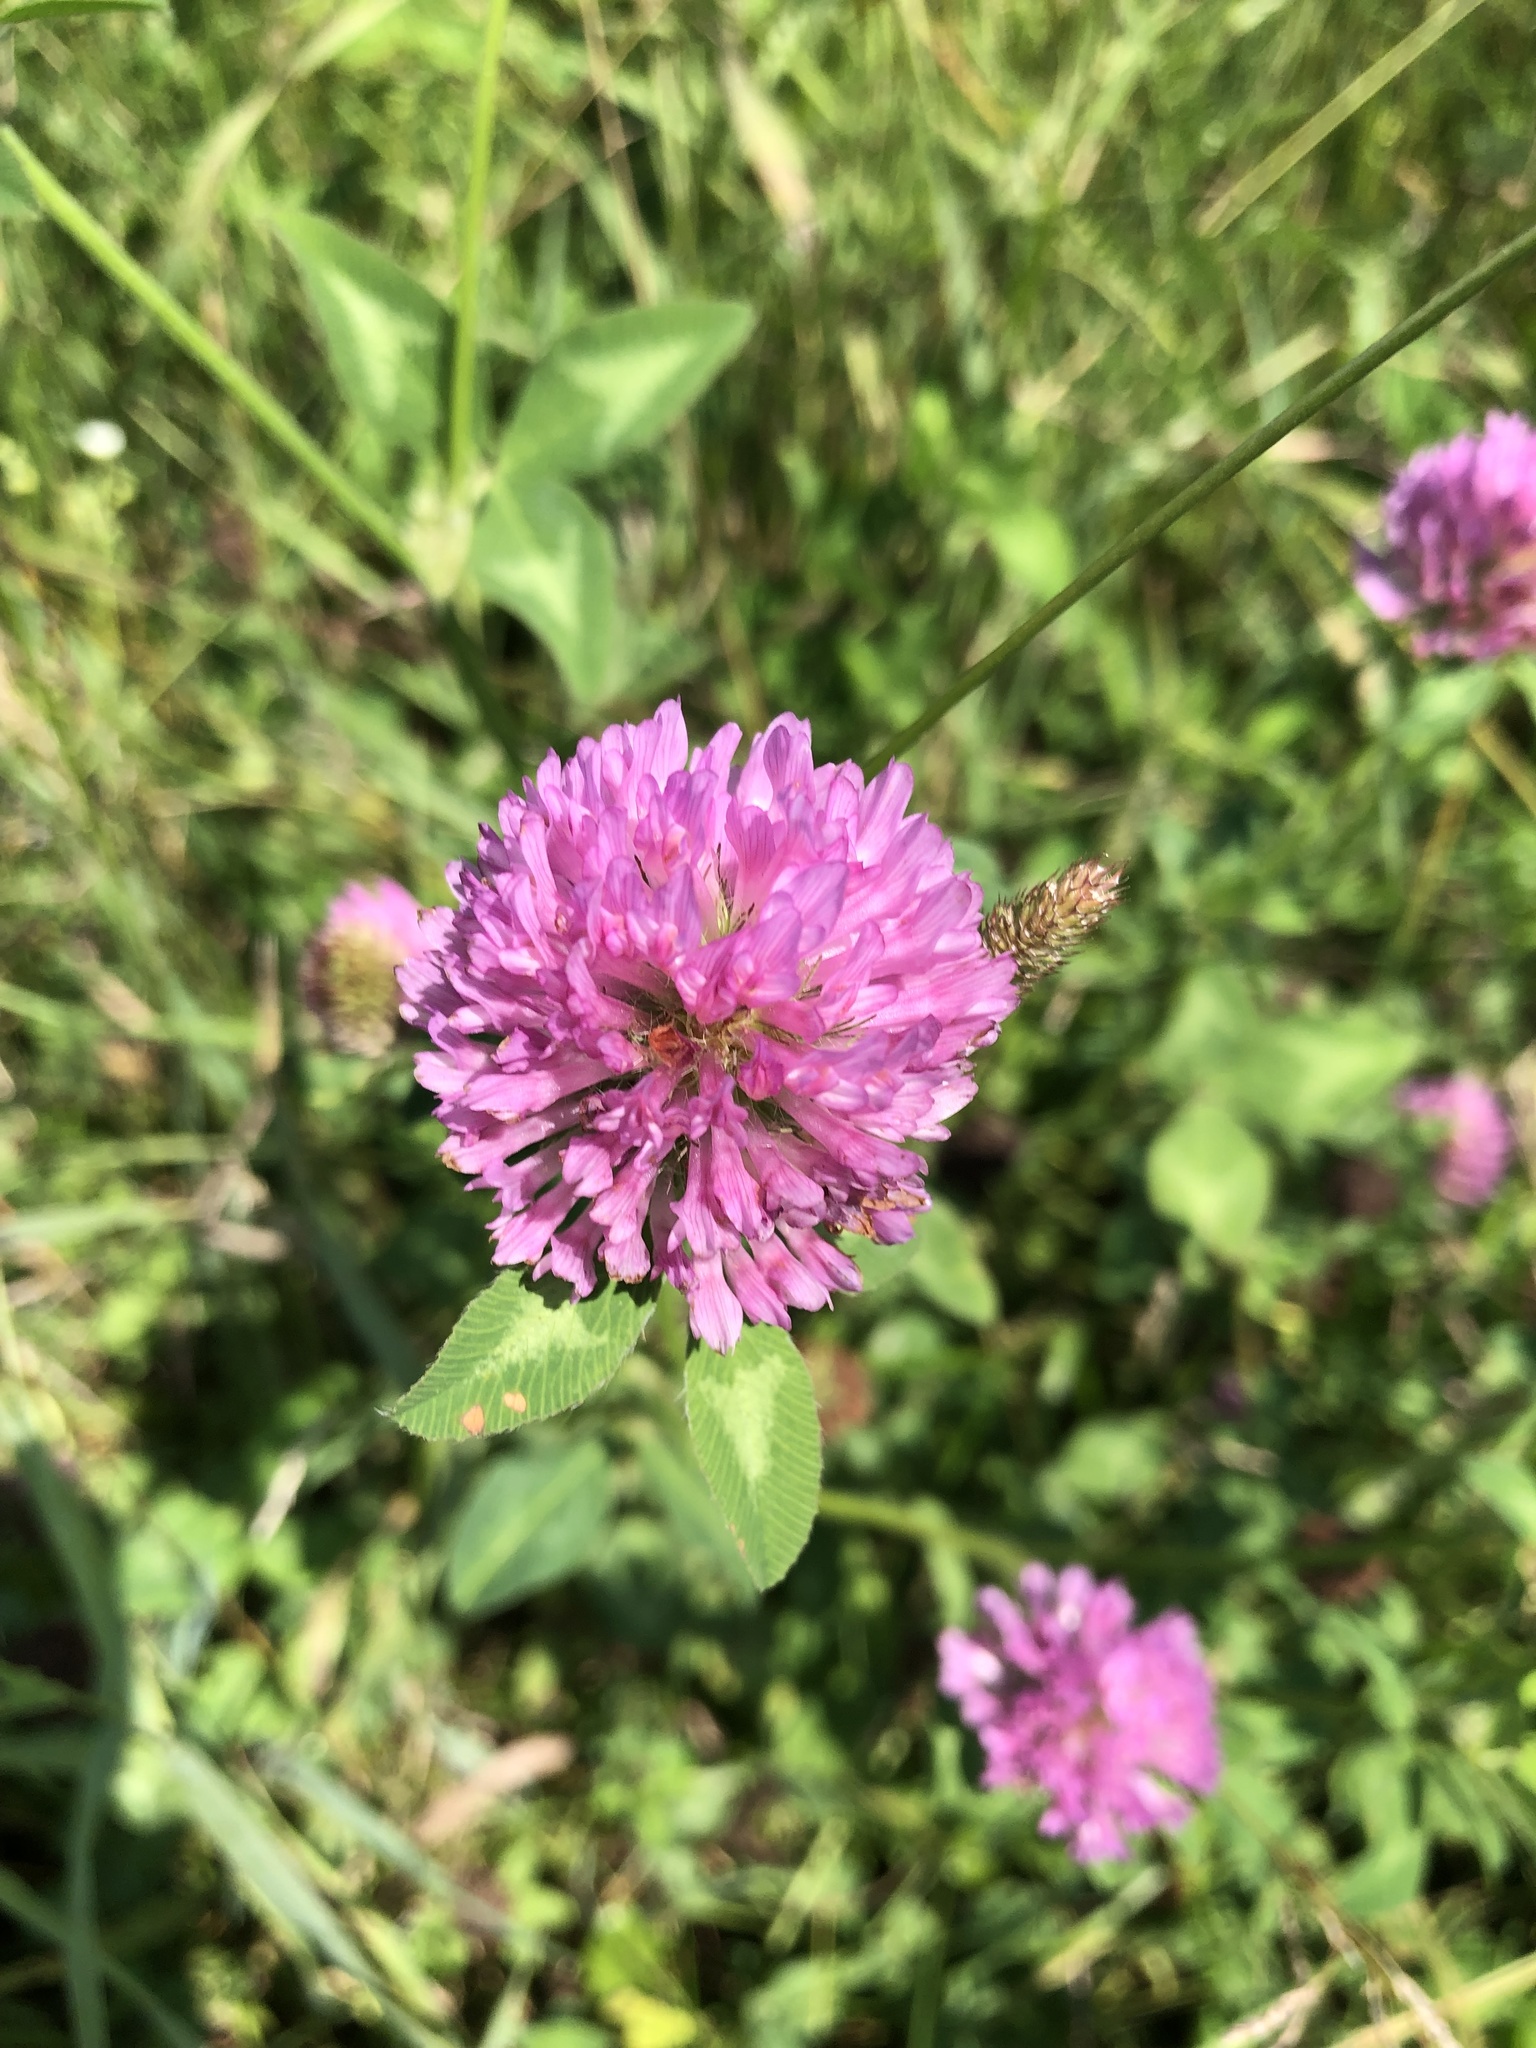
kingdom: Plantae
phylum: Tracheophyta
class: Magnoliopsida
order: Fabales
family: Fabaceae
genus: Trifolium
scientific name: Trifolium pratense
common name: Red clover
